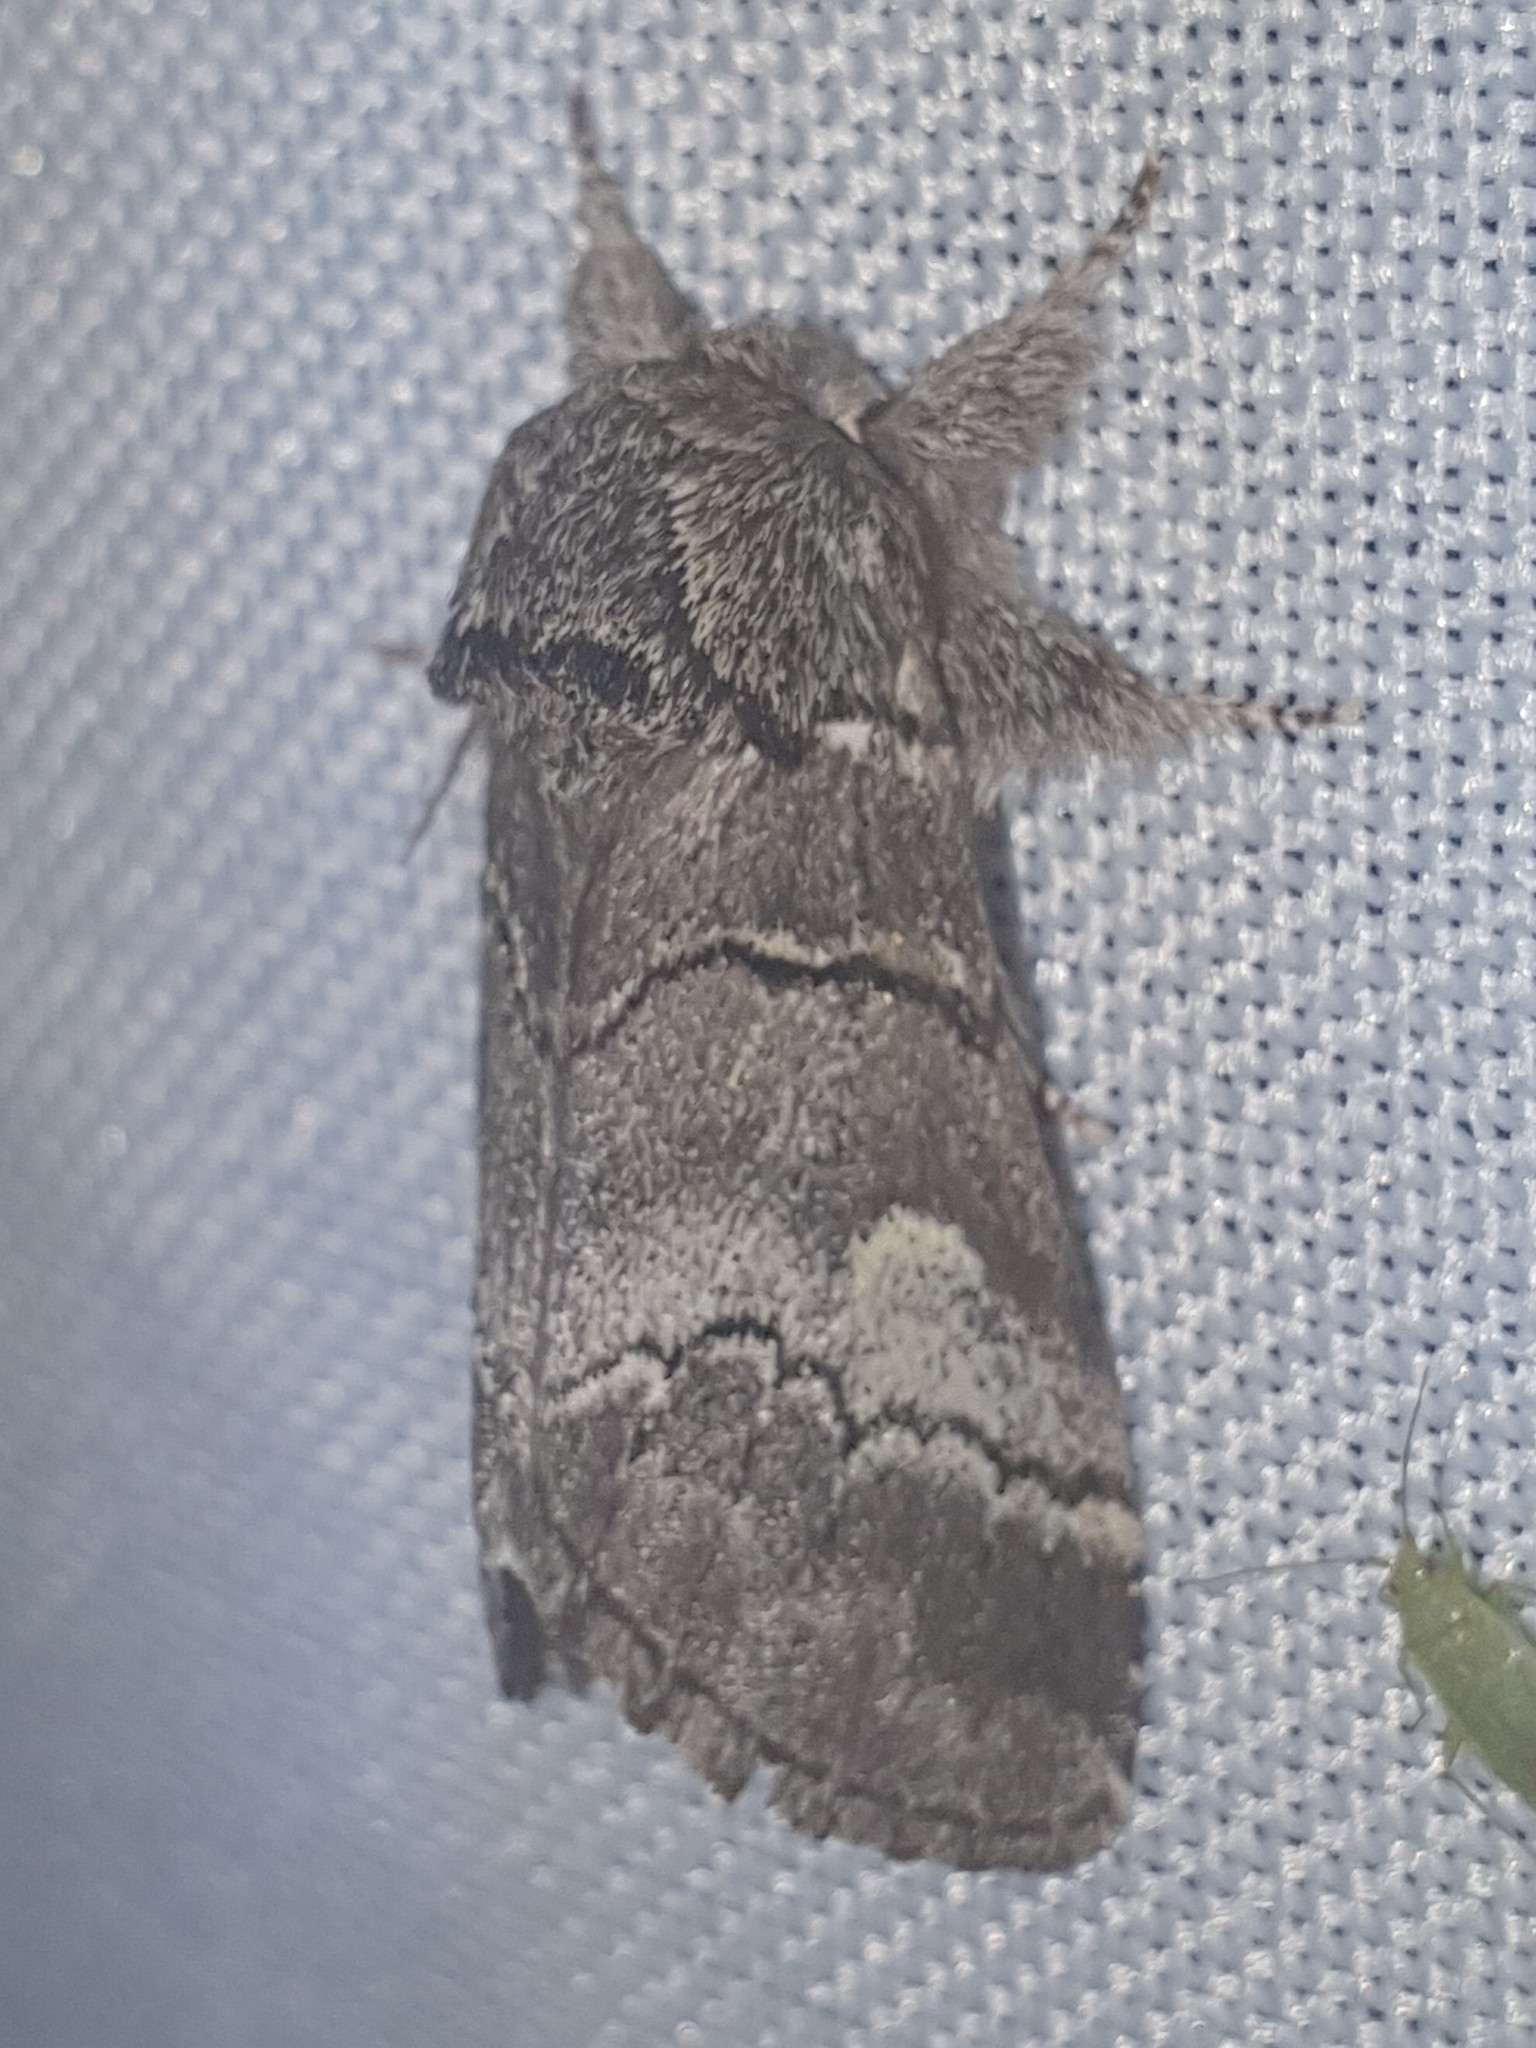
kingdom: Animalia
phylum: Arthropoda
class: Insecta
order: Lepidoptera
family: Notodontidae
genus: Drymonia
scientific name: Drymonia querna
